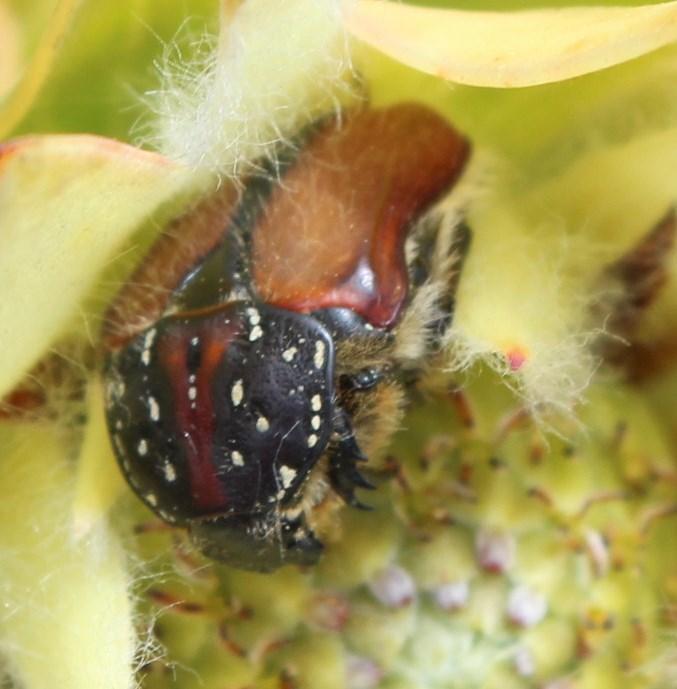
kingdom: Animalia
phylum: Arthropoda
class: Insecta
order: Coleoptera
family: Scarabaeidae
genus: Trichostetha
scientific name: Trichostetha capensis
